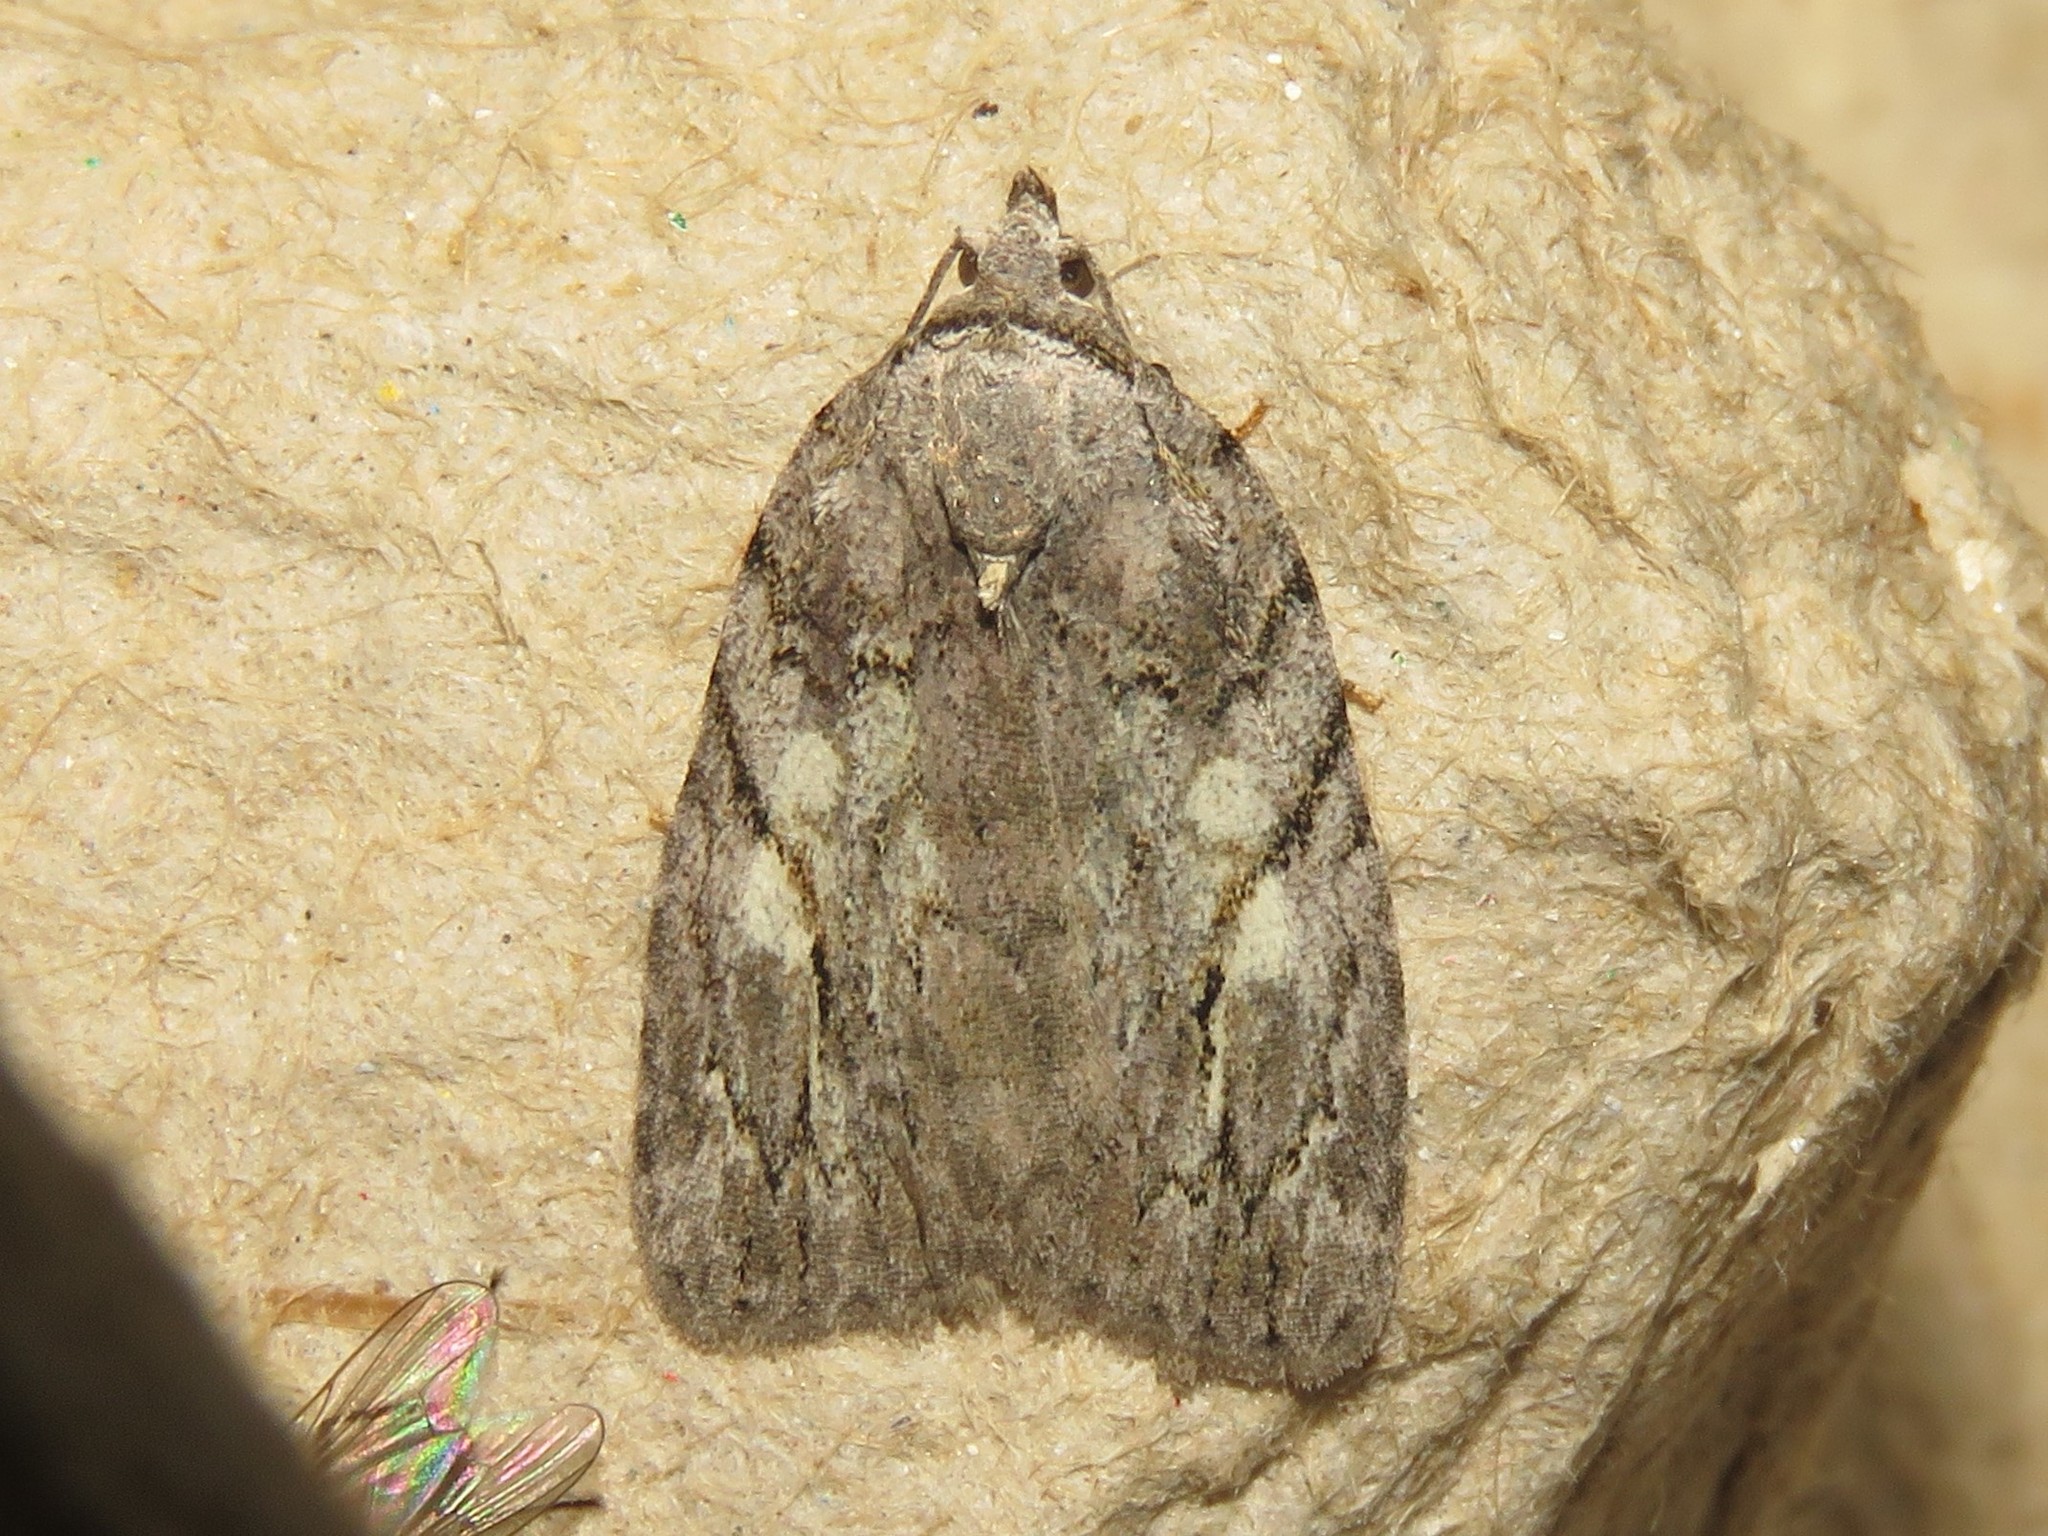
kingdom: Animalia
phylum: Arthropoda
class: Insecta
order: Lepidoptera
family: Noctuidae
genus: Balsa
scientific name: Balsa labecula
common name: White-blotched balsa moth
